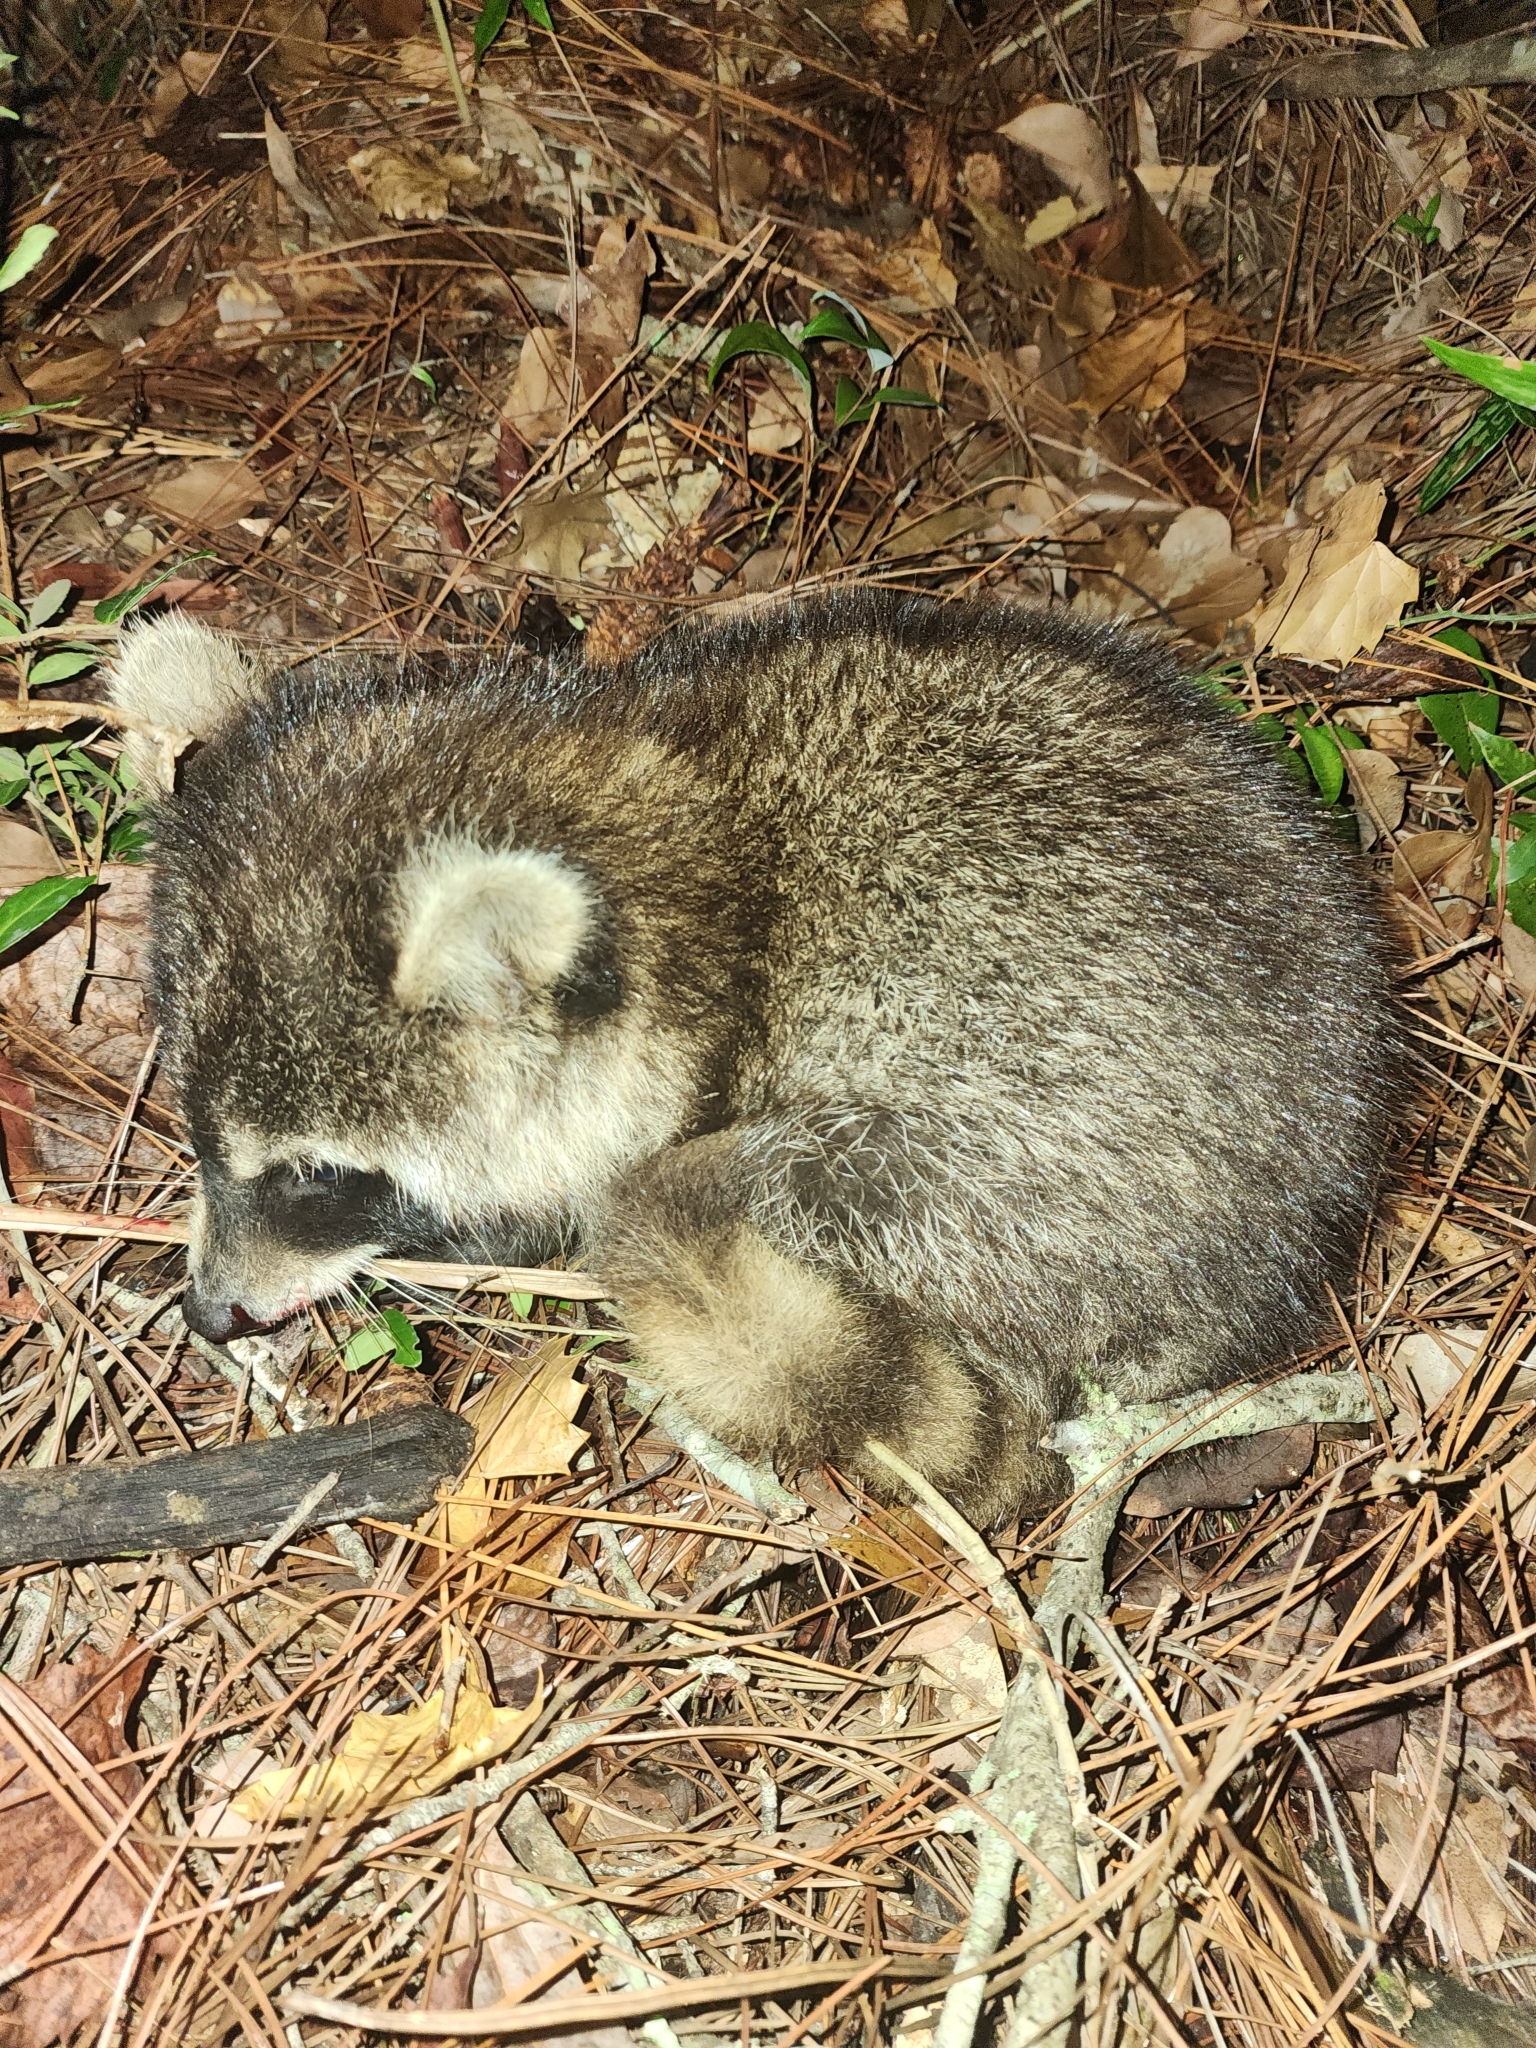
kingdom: Animalia
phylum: Chordata
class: Mammalia
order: Carnivora
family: Procyonidae
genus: Procyon
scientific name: Procyon lotor
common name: Raccoon
